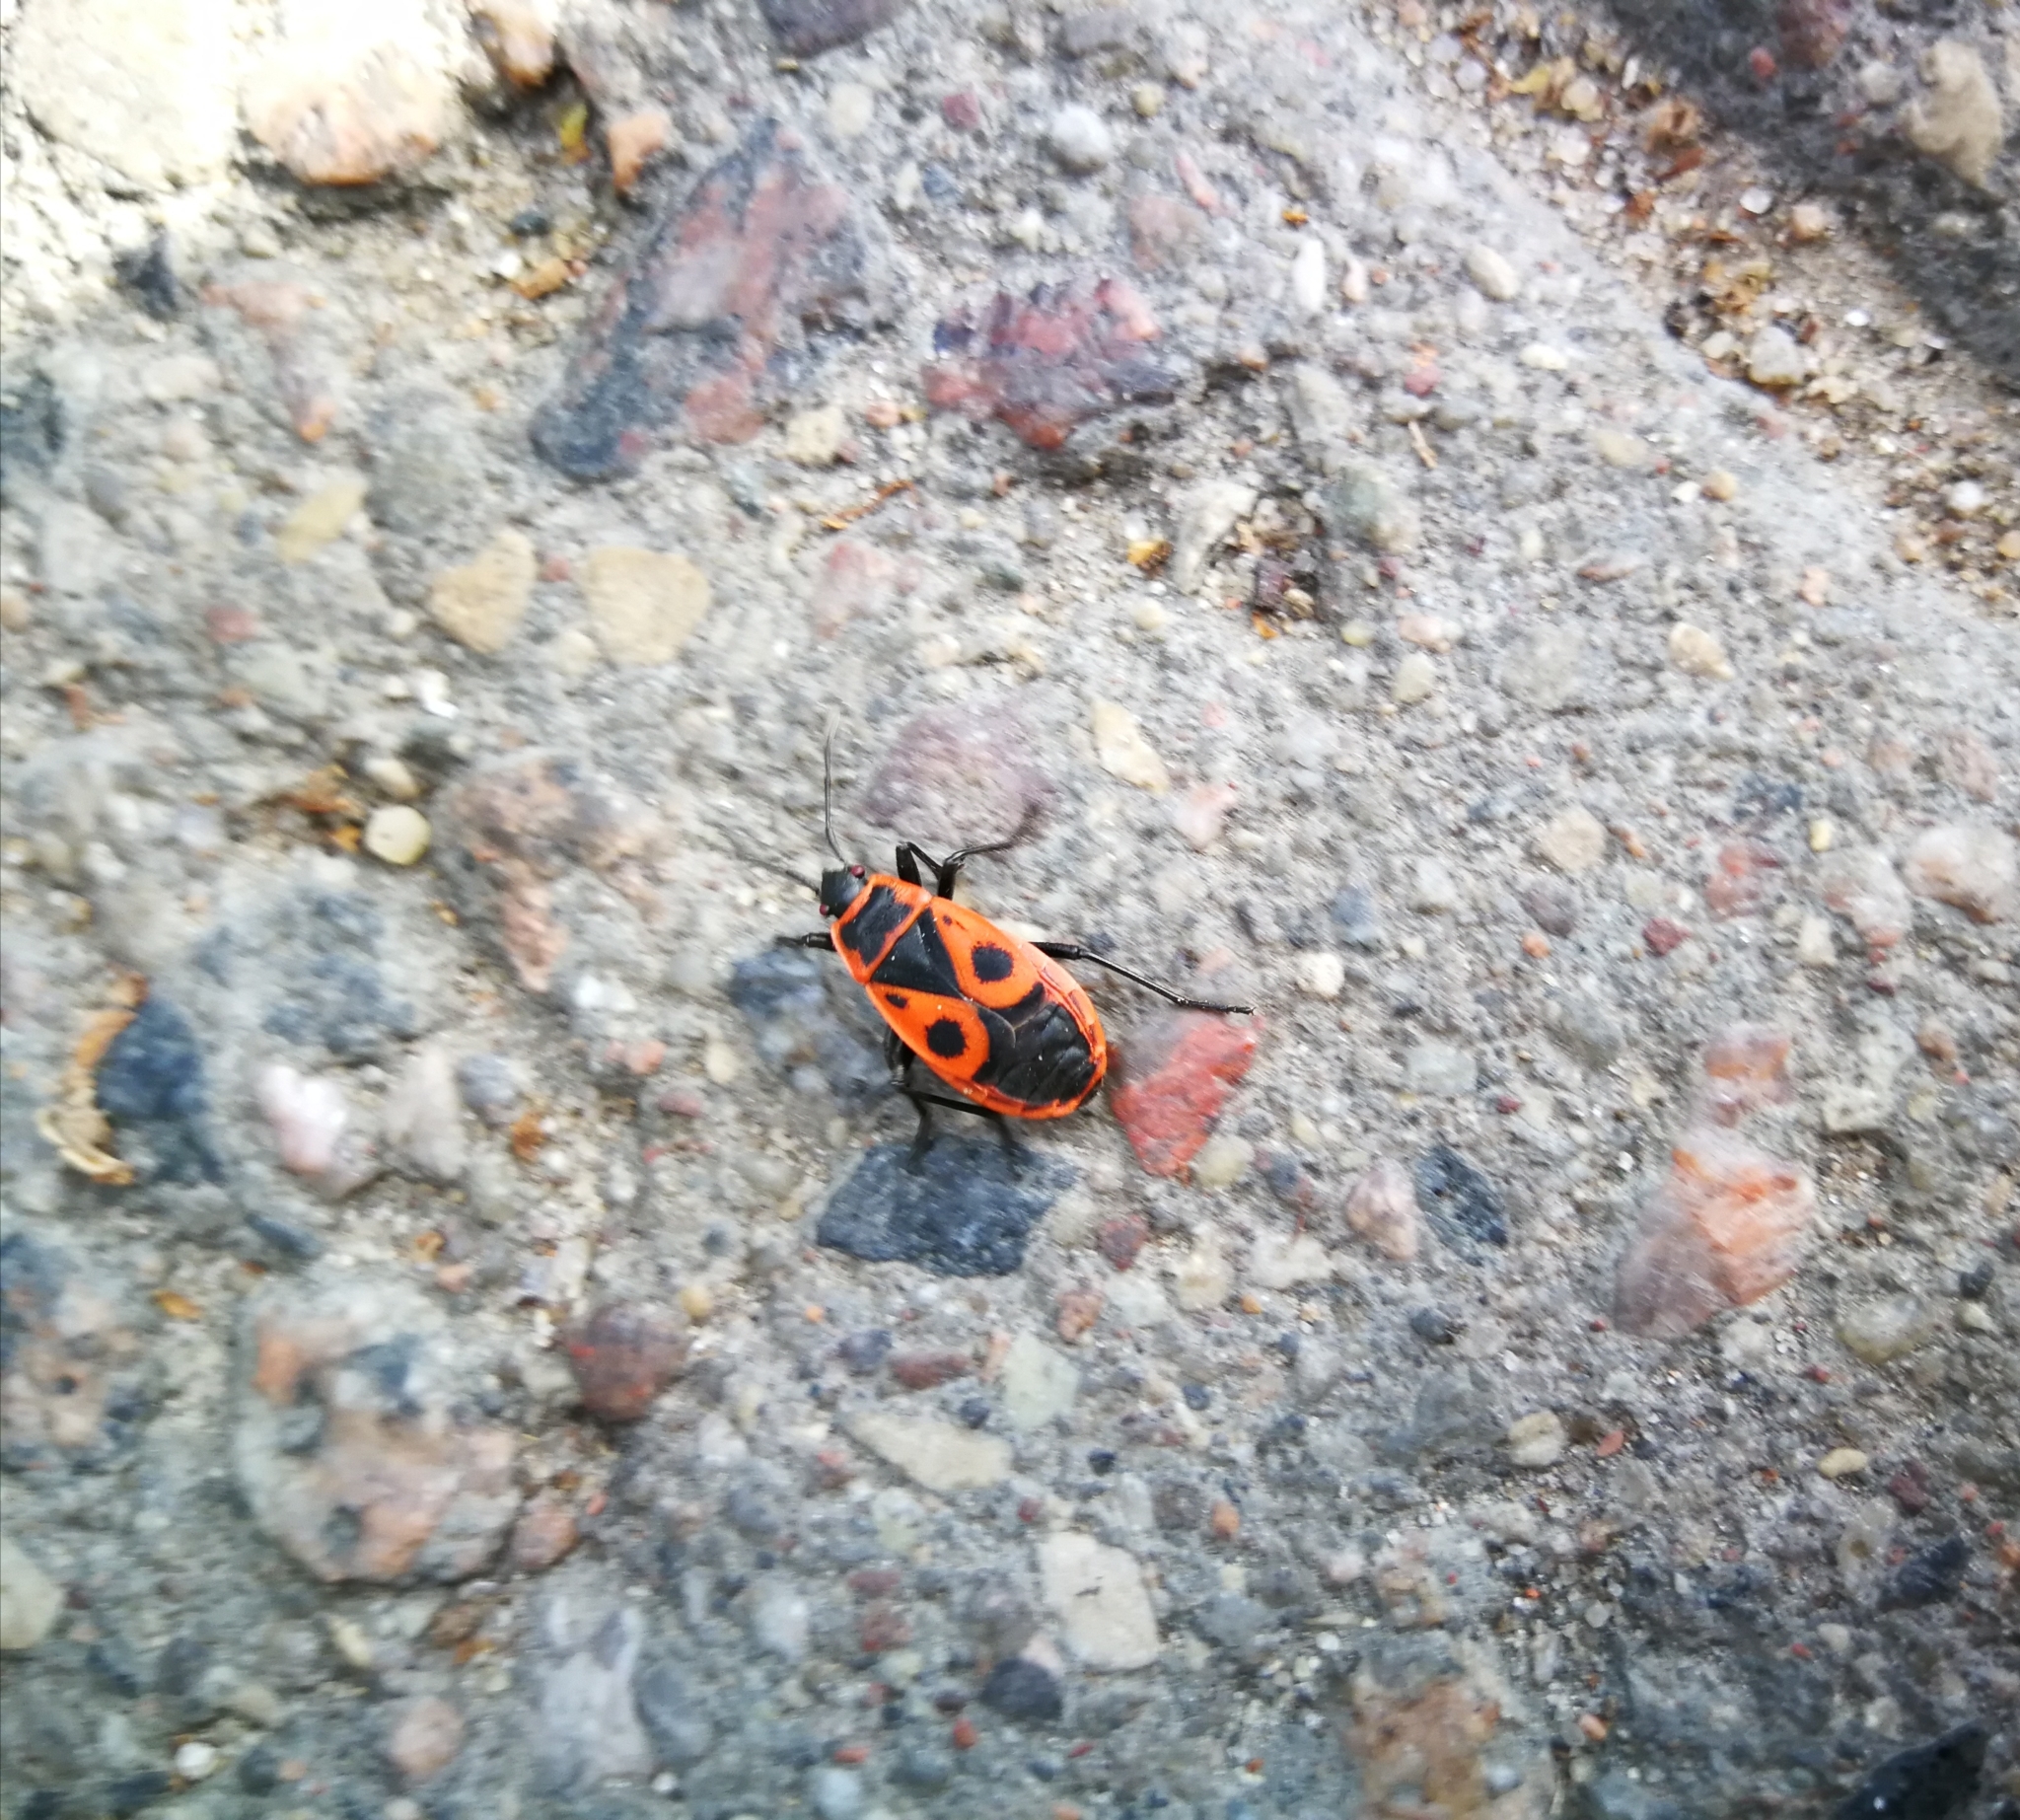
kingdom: Animalia
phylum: Arthropoda
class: Insecta
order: Hemiptera
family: Pyrrhocoridae
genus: Pyrrhocoris
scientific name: Pyrrhocoris apterus
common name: Firebug
